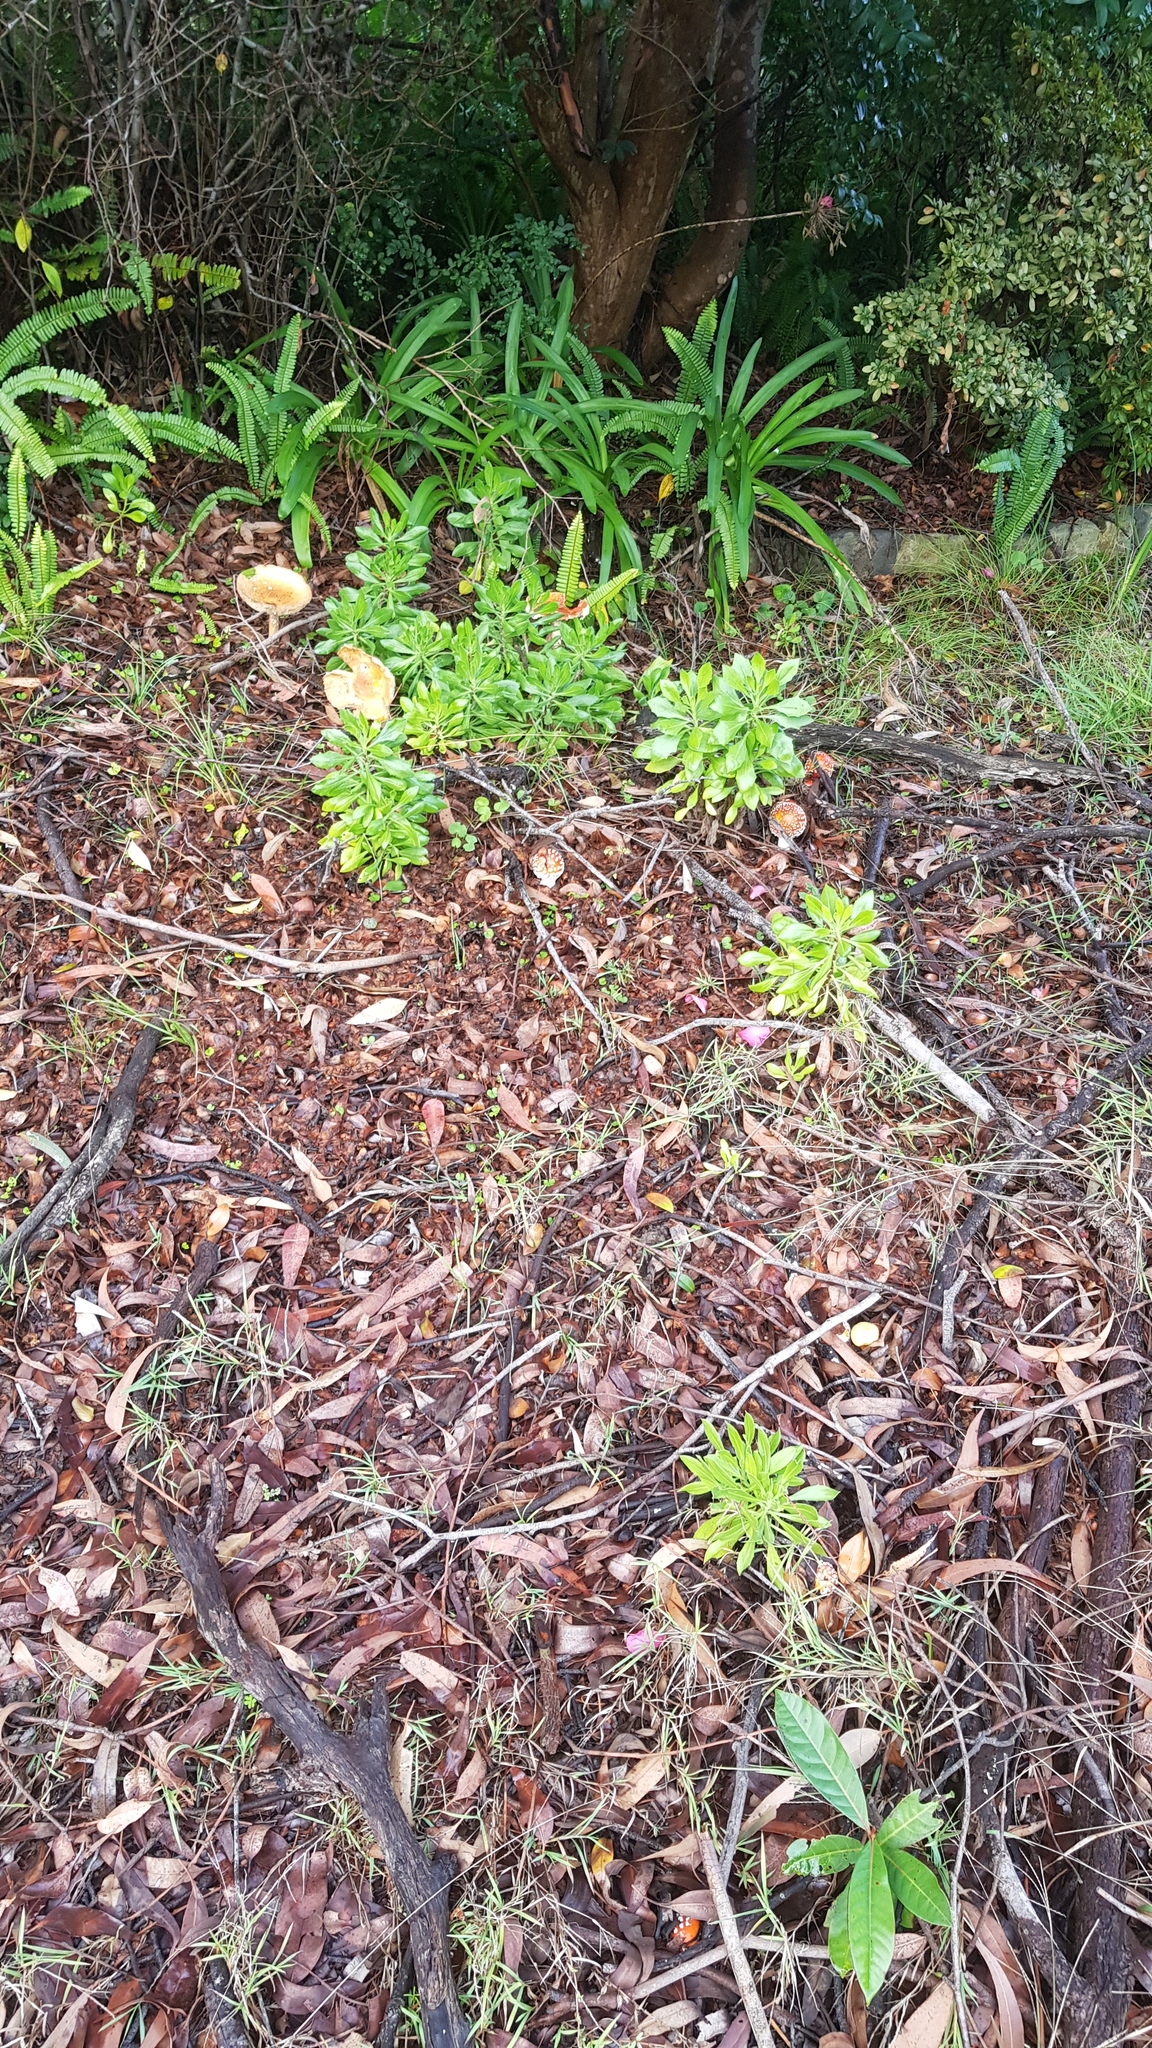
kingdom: Fungi
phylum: Basidiomycota
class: Agaricomycetes
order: Agaricales
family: Amanitaceae
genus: Amanita
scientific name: Amanita muscaria
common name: Fly agaric
